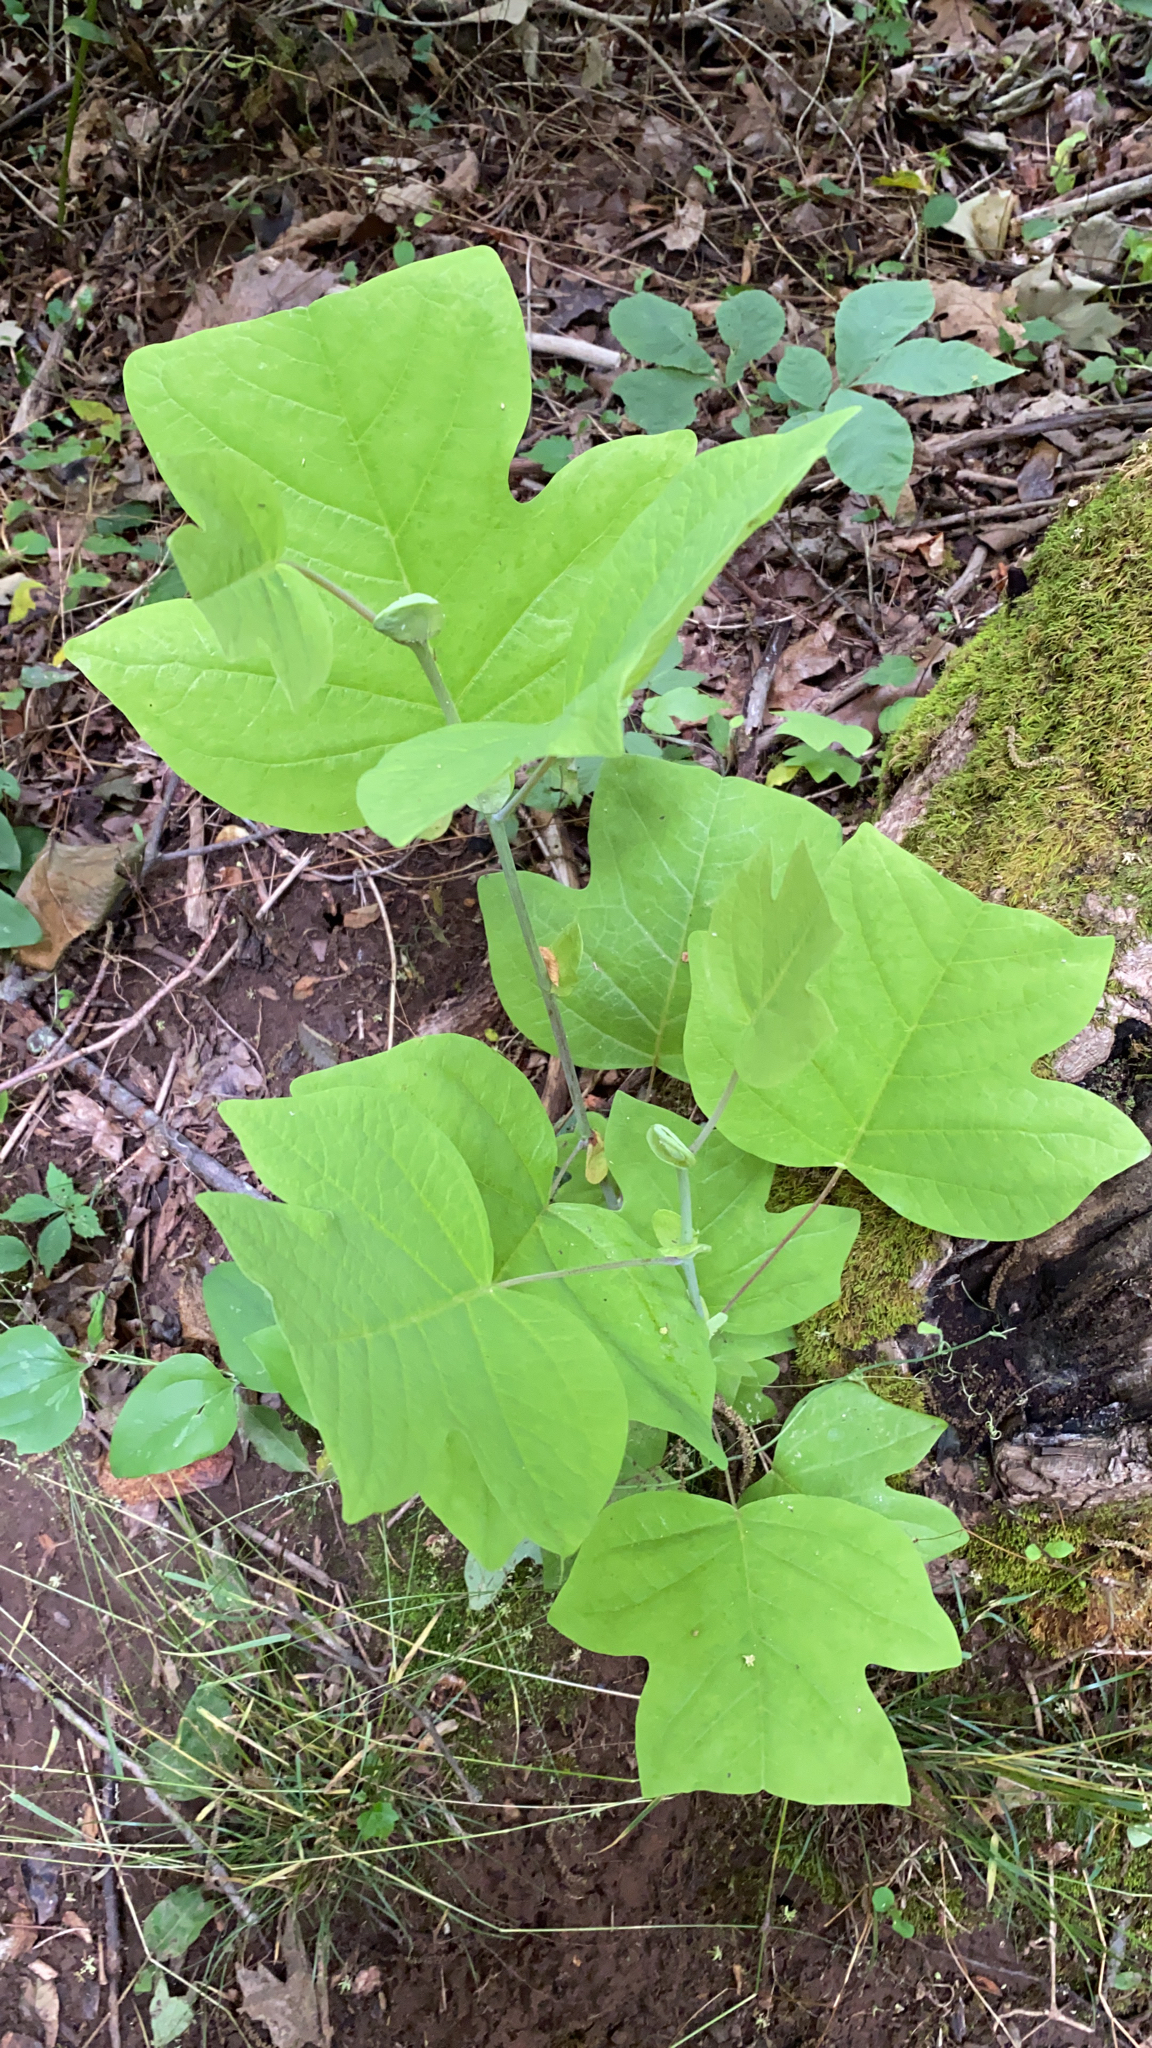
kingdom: Plantae
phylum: Tracheophyta
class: Magnoliopsida
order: Magnoliales
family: Magnoliaceae
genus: Liriodendron
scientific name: Liriodendron tulipifera
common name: Tulip tree
